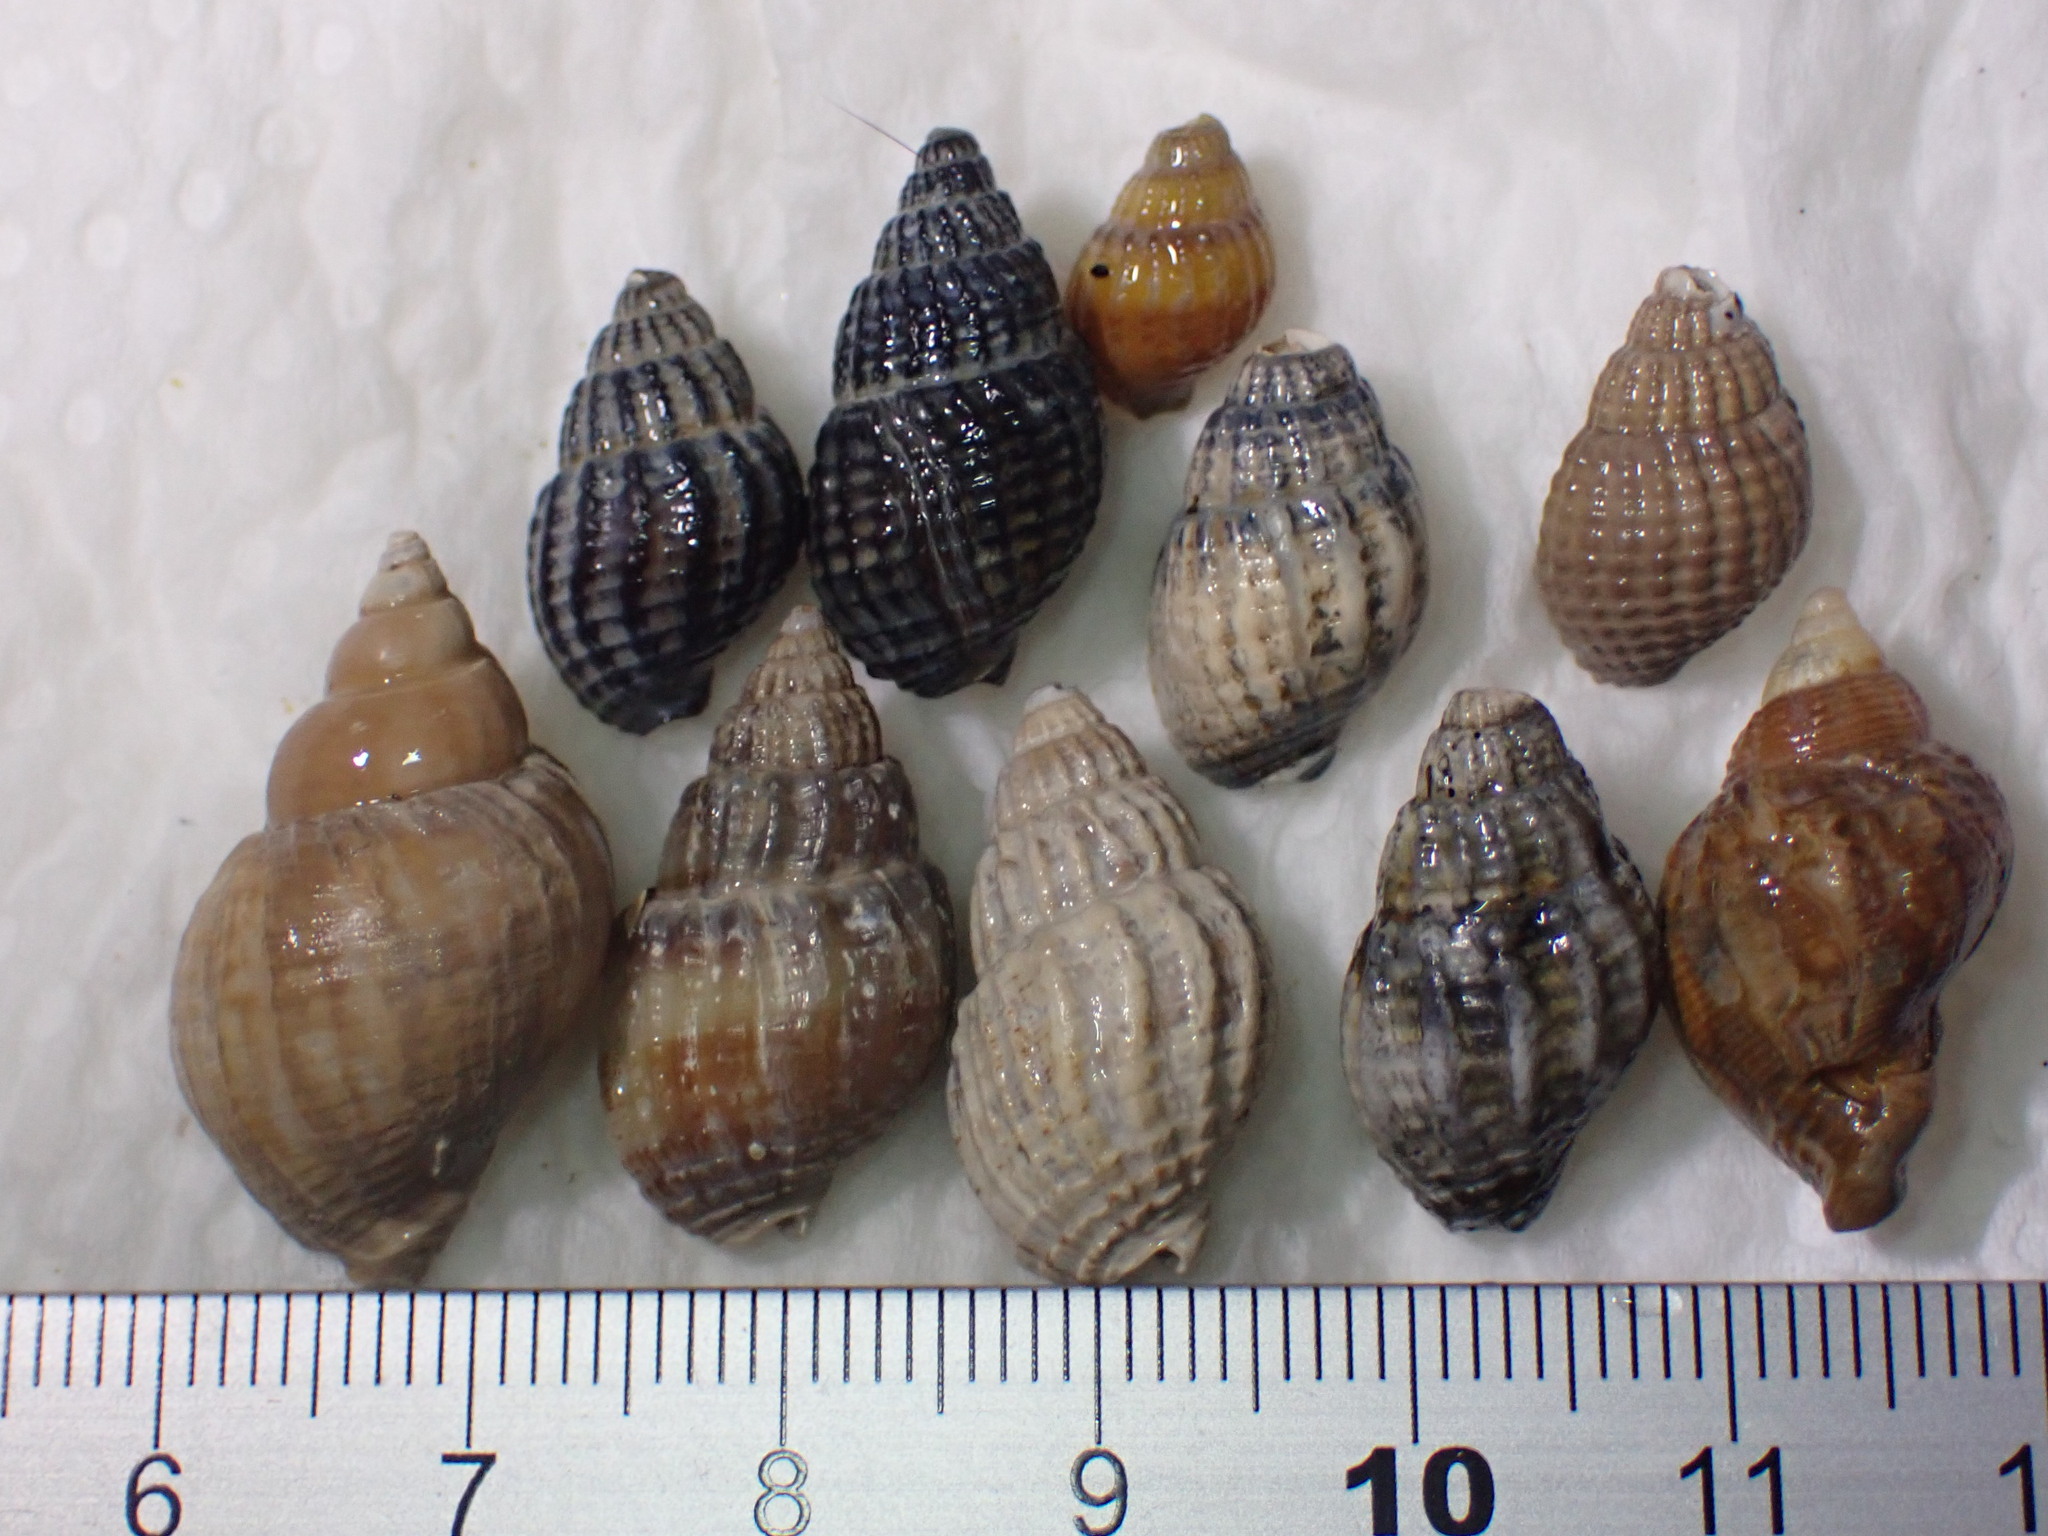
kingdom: Animalia
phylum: Mollusca
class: Gastropoda
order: Neogastropoda
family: Nassariidae
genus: Tritia
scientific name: Tritia nitida
